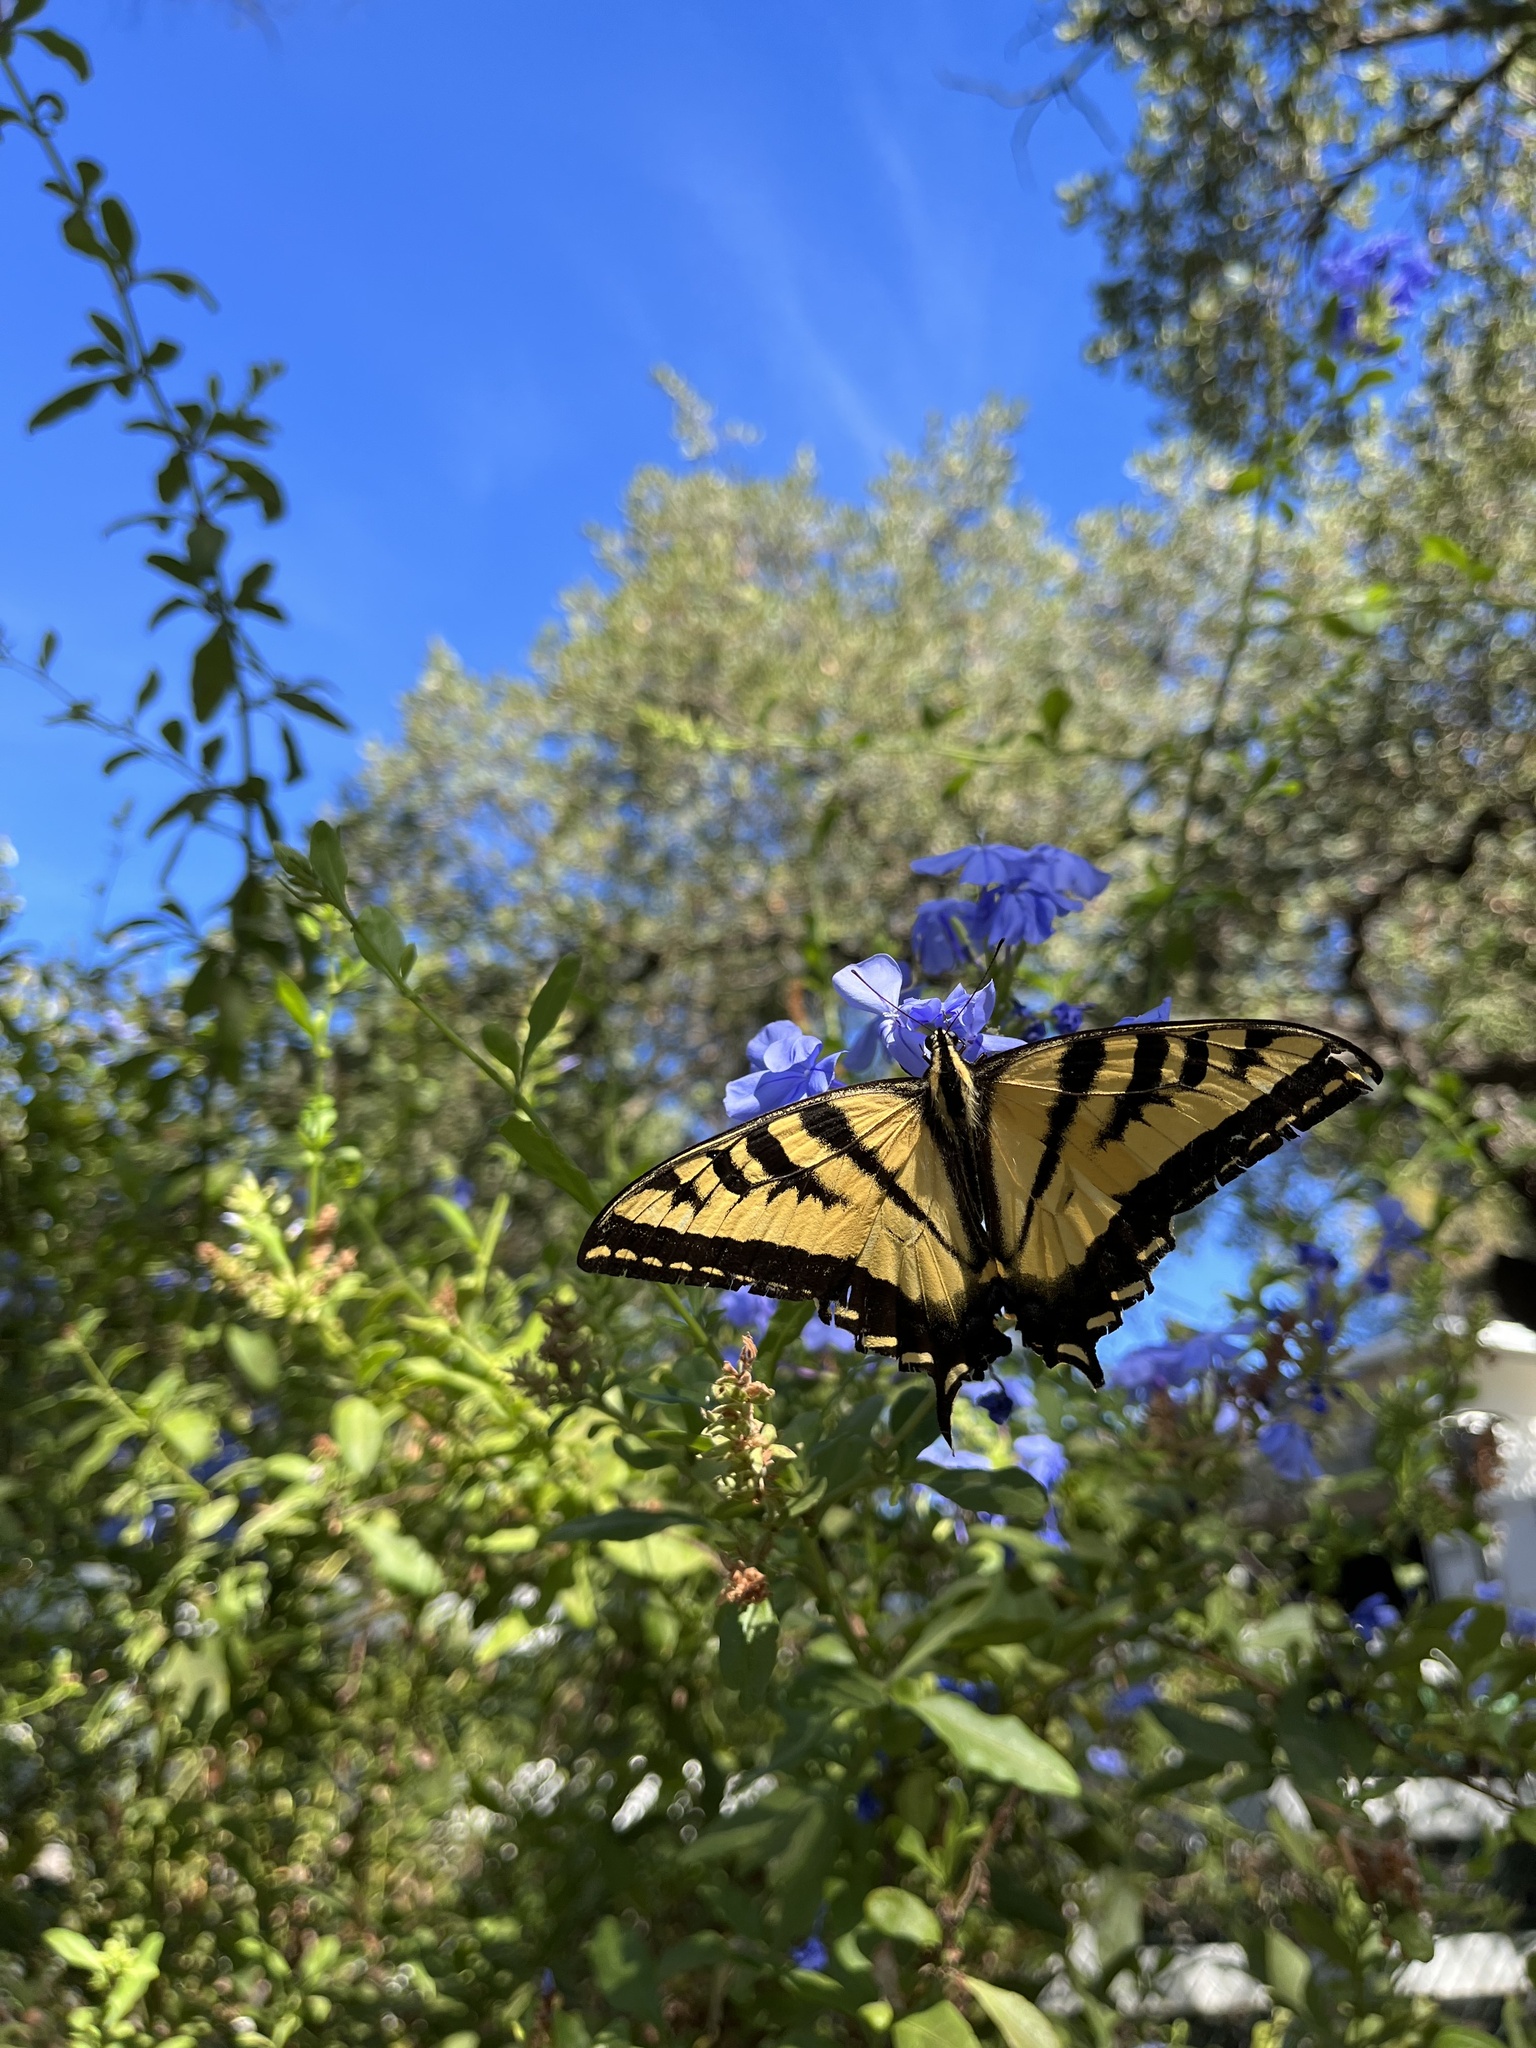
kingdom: Animalia
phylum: Arthropoda
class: Insecta
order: Lepidoptera
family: Papilionidae
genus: Papilio
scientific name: Papilio rutulus
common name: Western tiger swallowtail
